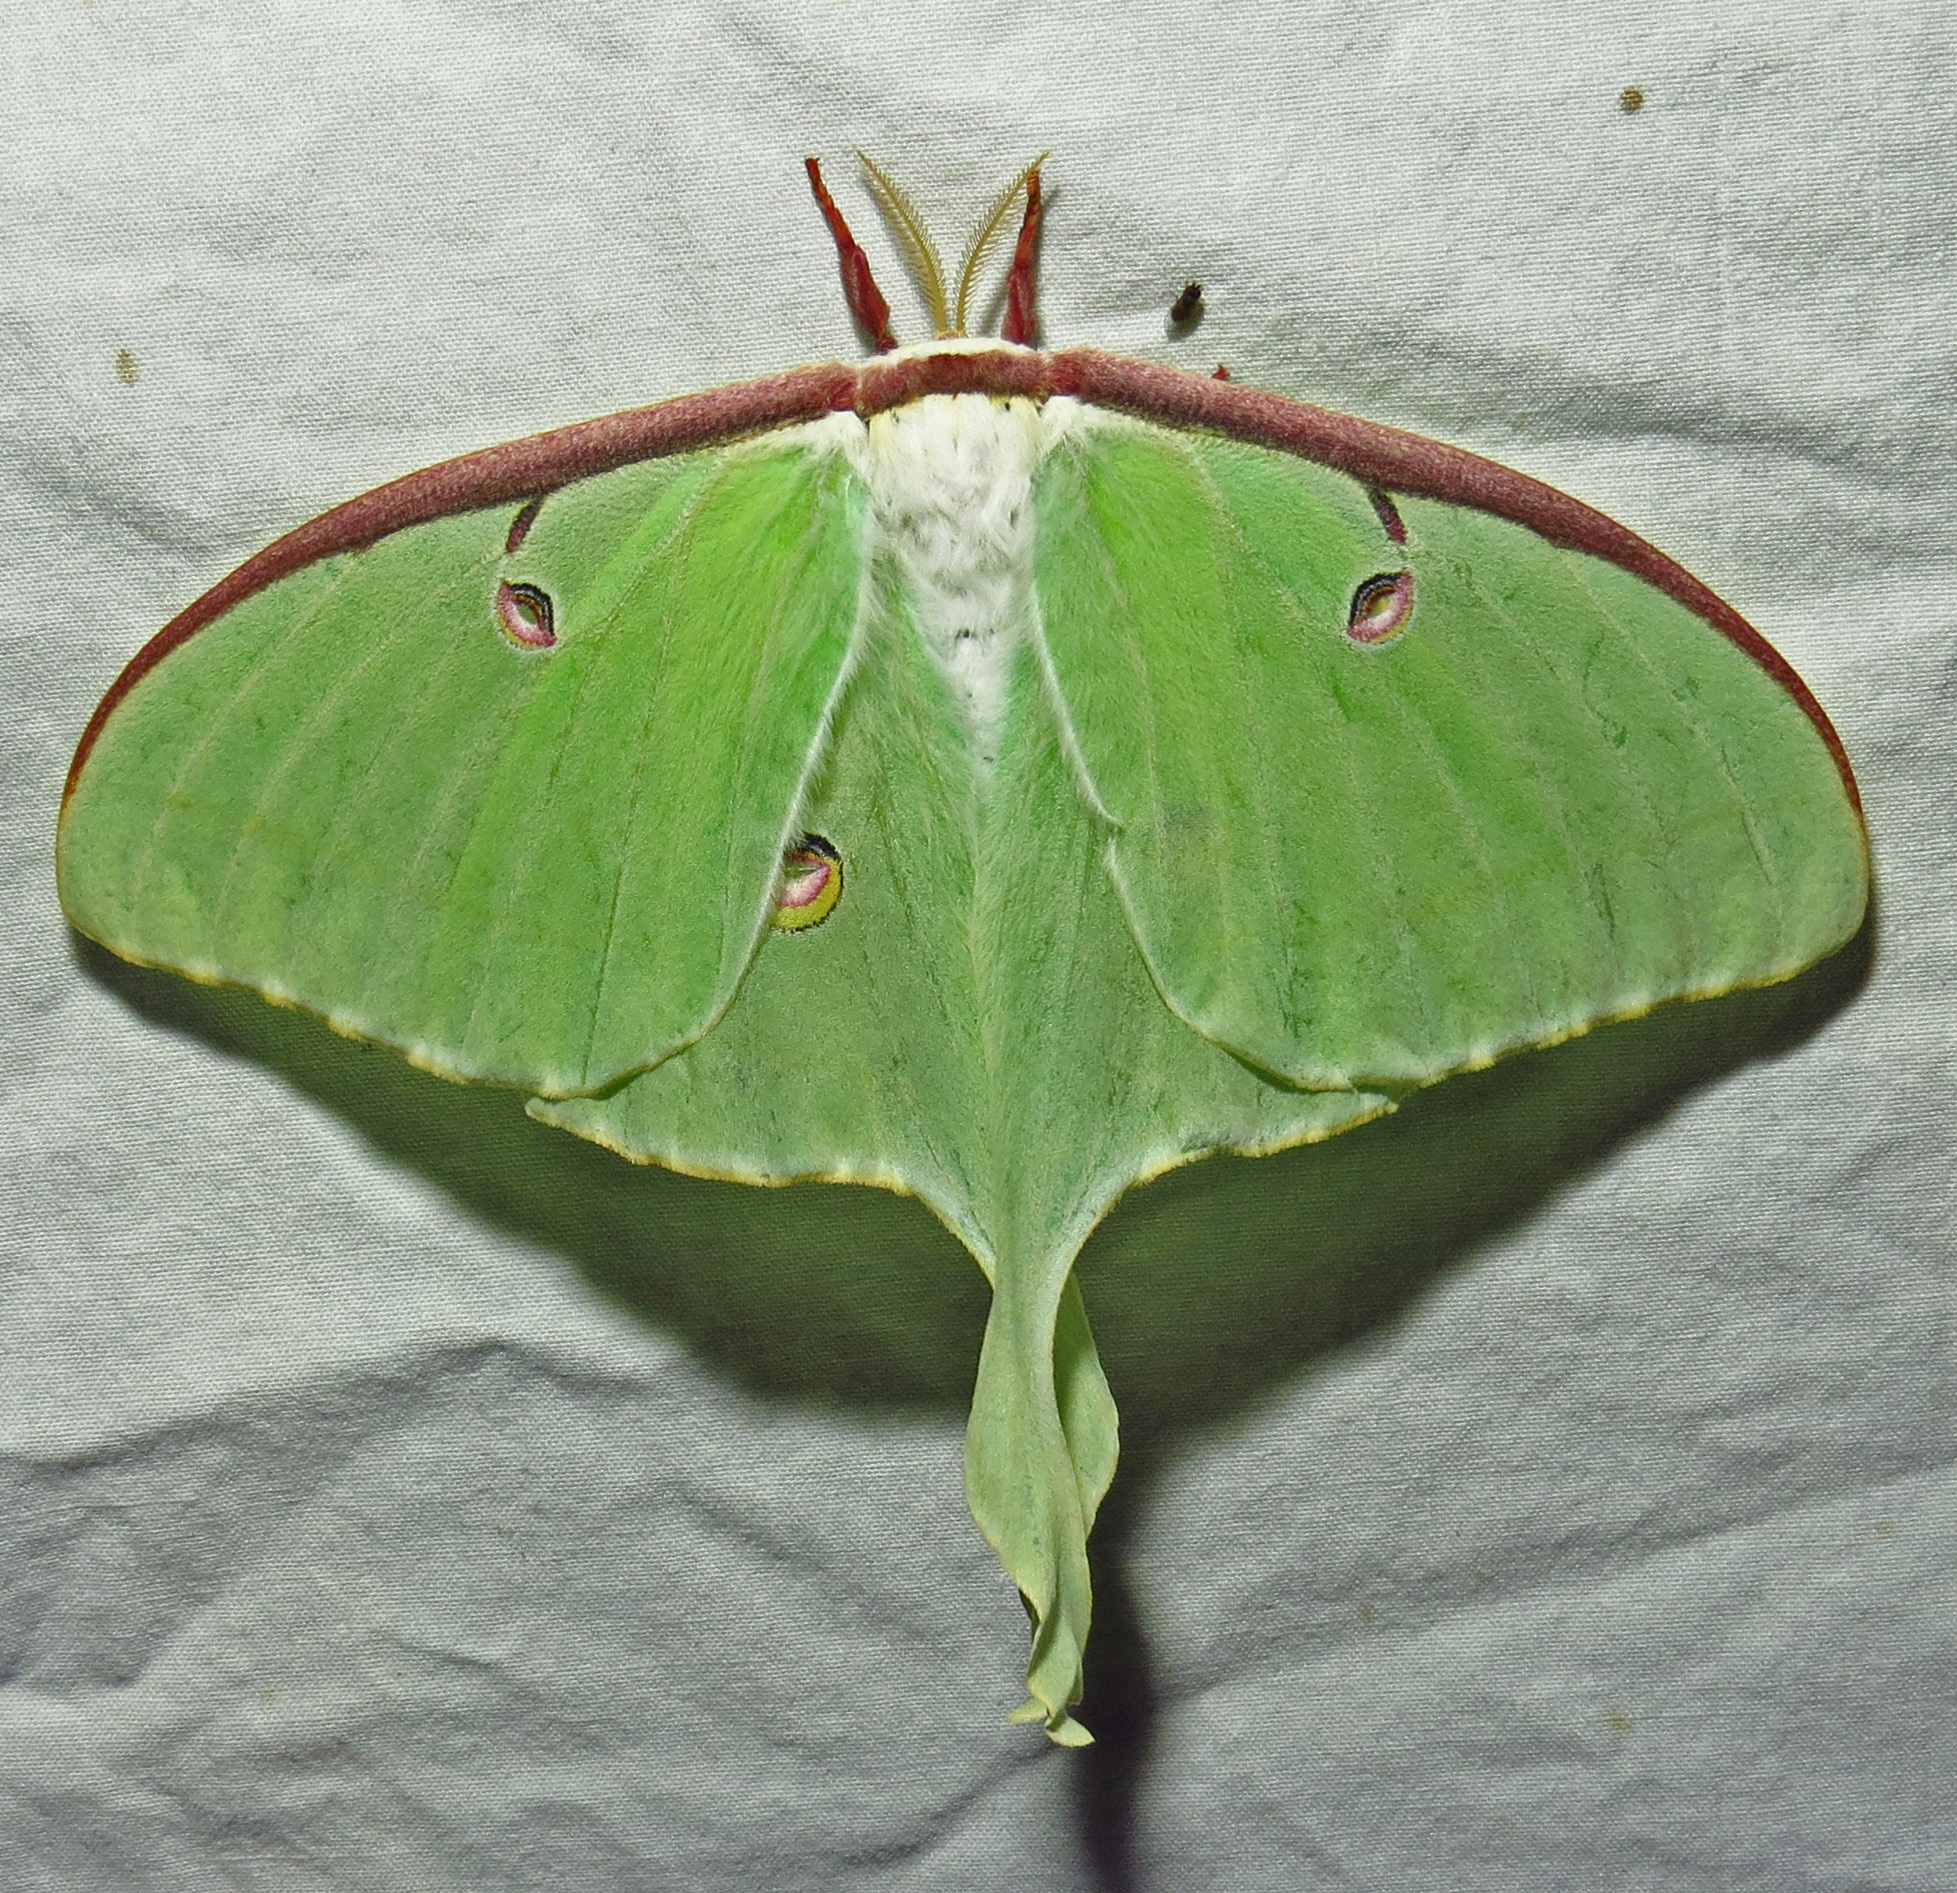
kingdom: Animalia
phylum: Arthropoda
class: Insecta
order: Lepidoptera
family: Saturniidae
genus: Actias
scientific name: Actias luna
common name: Luna moth
